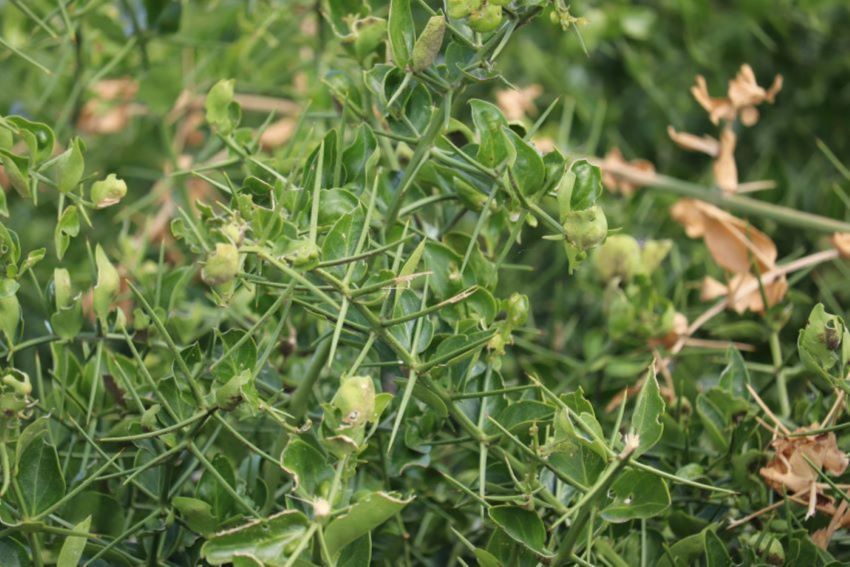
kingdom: Plantae
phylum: Tracheophyta
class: Magnoliopsida
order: Brassicales
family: Salvadoraceae
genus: Azima
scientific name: Azima tetracantha
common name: Needle bush
